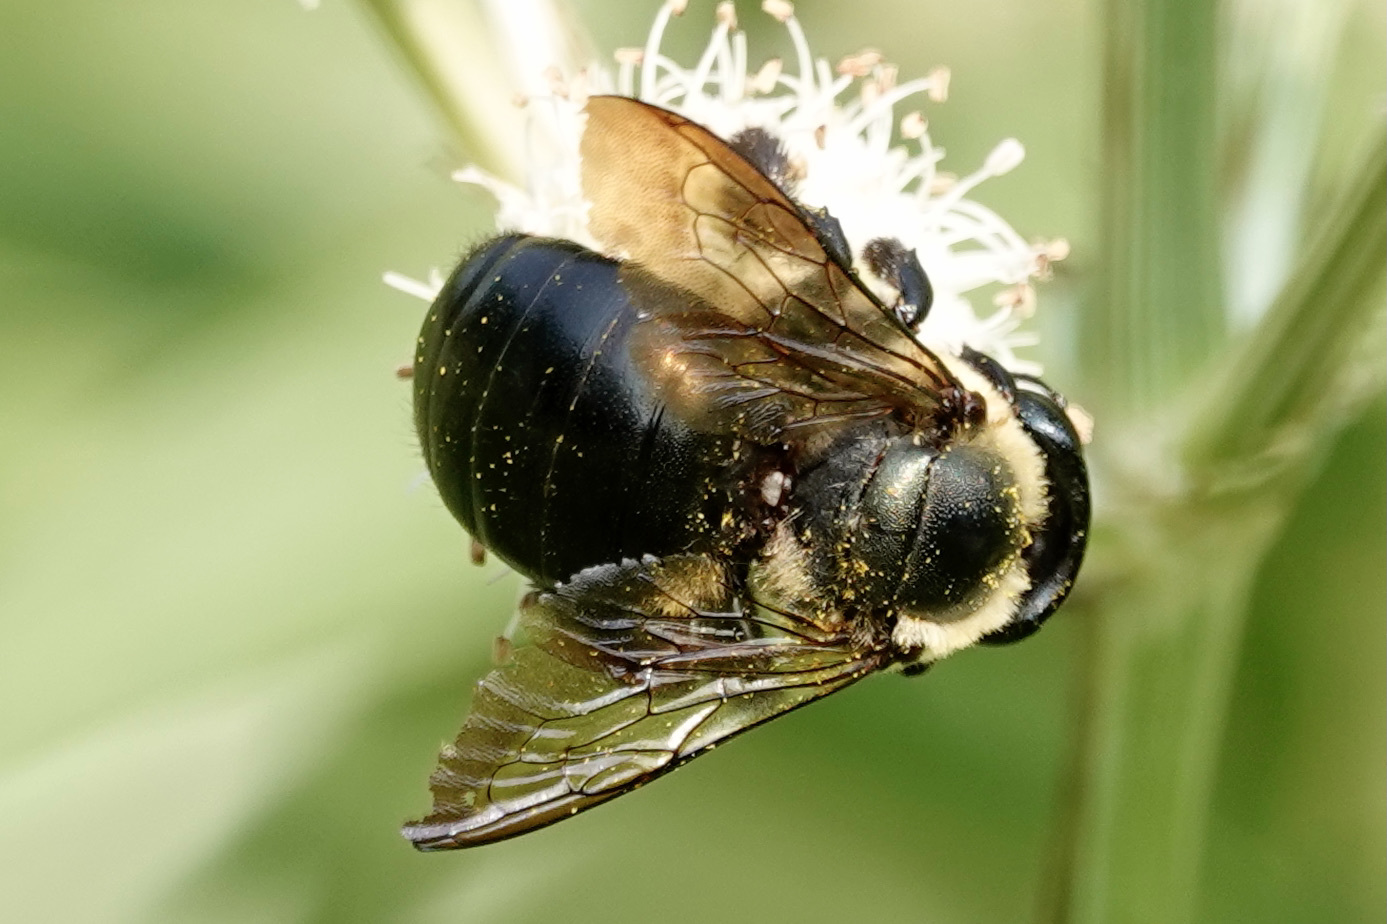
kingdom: Animalia
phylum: Arthropoda
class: Insecta
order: Hymenoptera
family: Apidae
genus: Xylocopa
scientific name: Xylocopa virginica
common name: Carpenter bee
